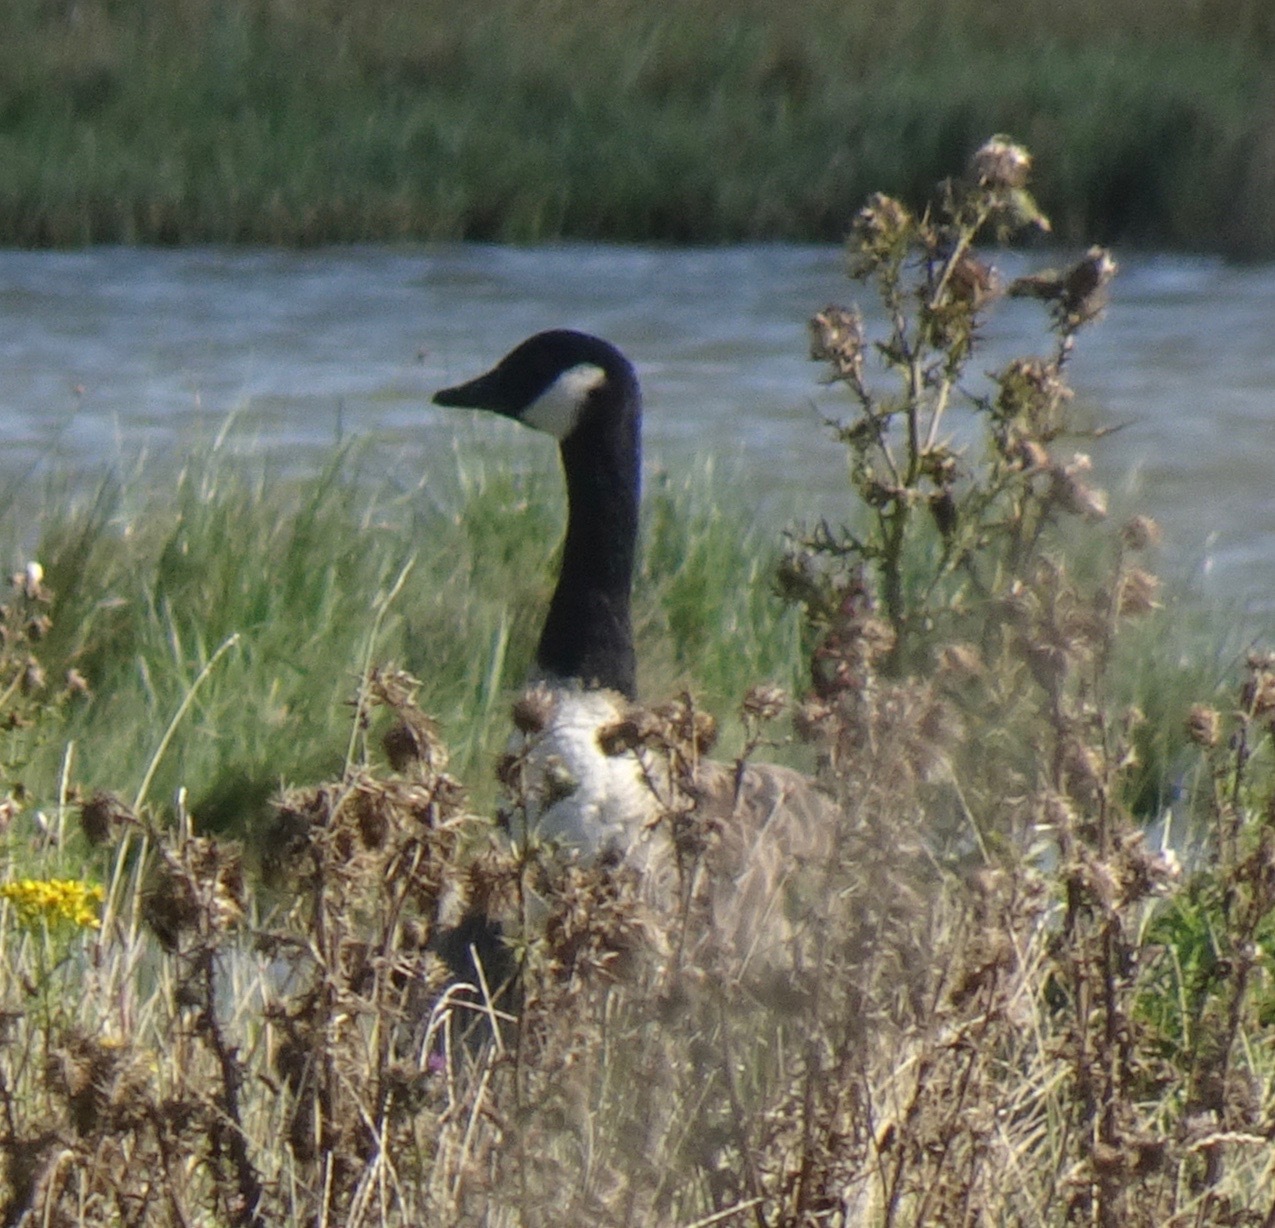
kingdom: Animalia
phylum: Chordata
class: Aves
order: Anseriformes
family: Anatidae
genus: Branta
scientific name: Branta canadensis
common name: Canada goose
